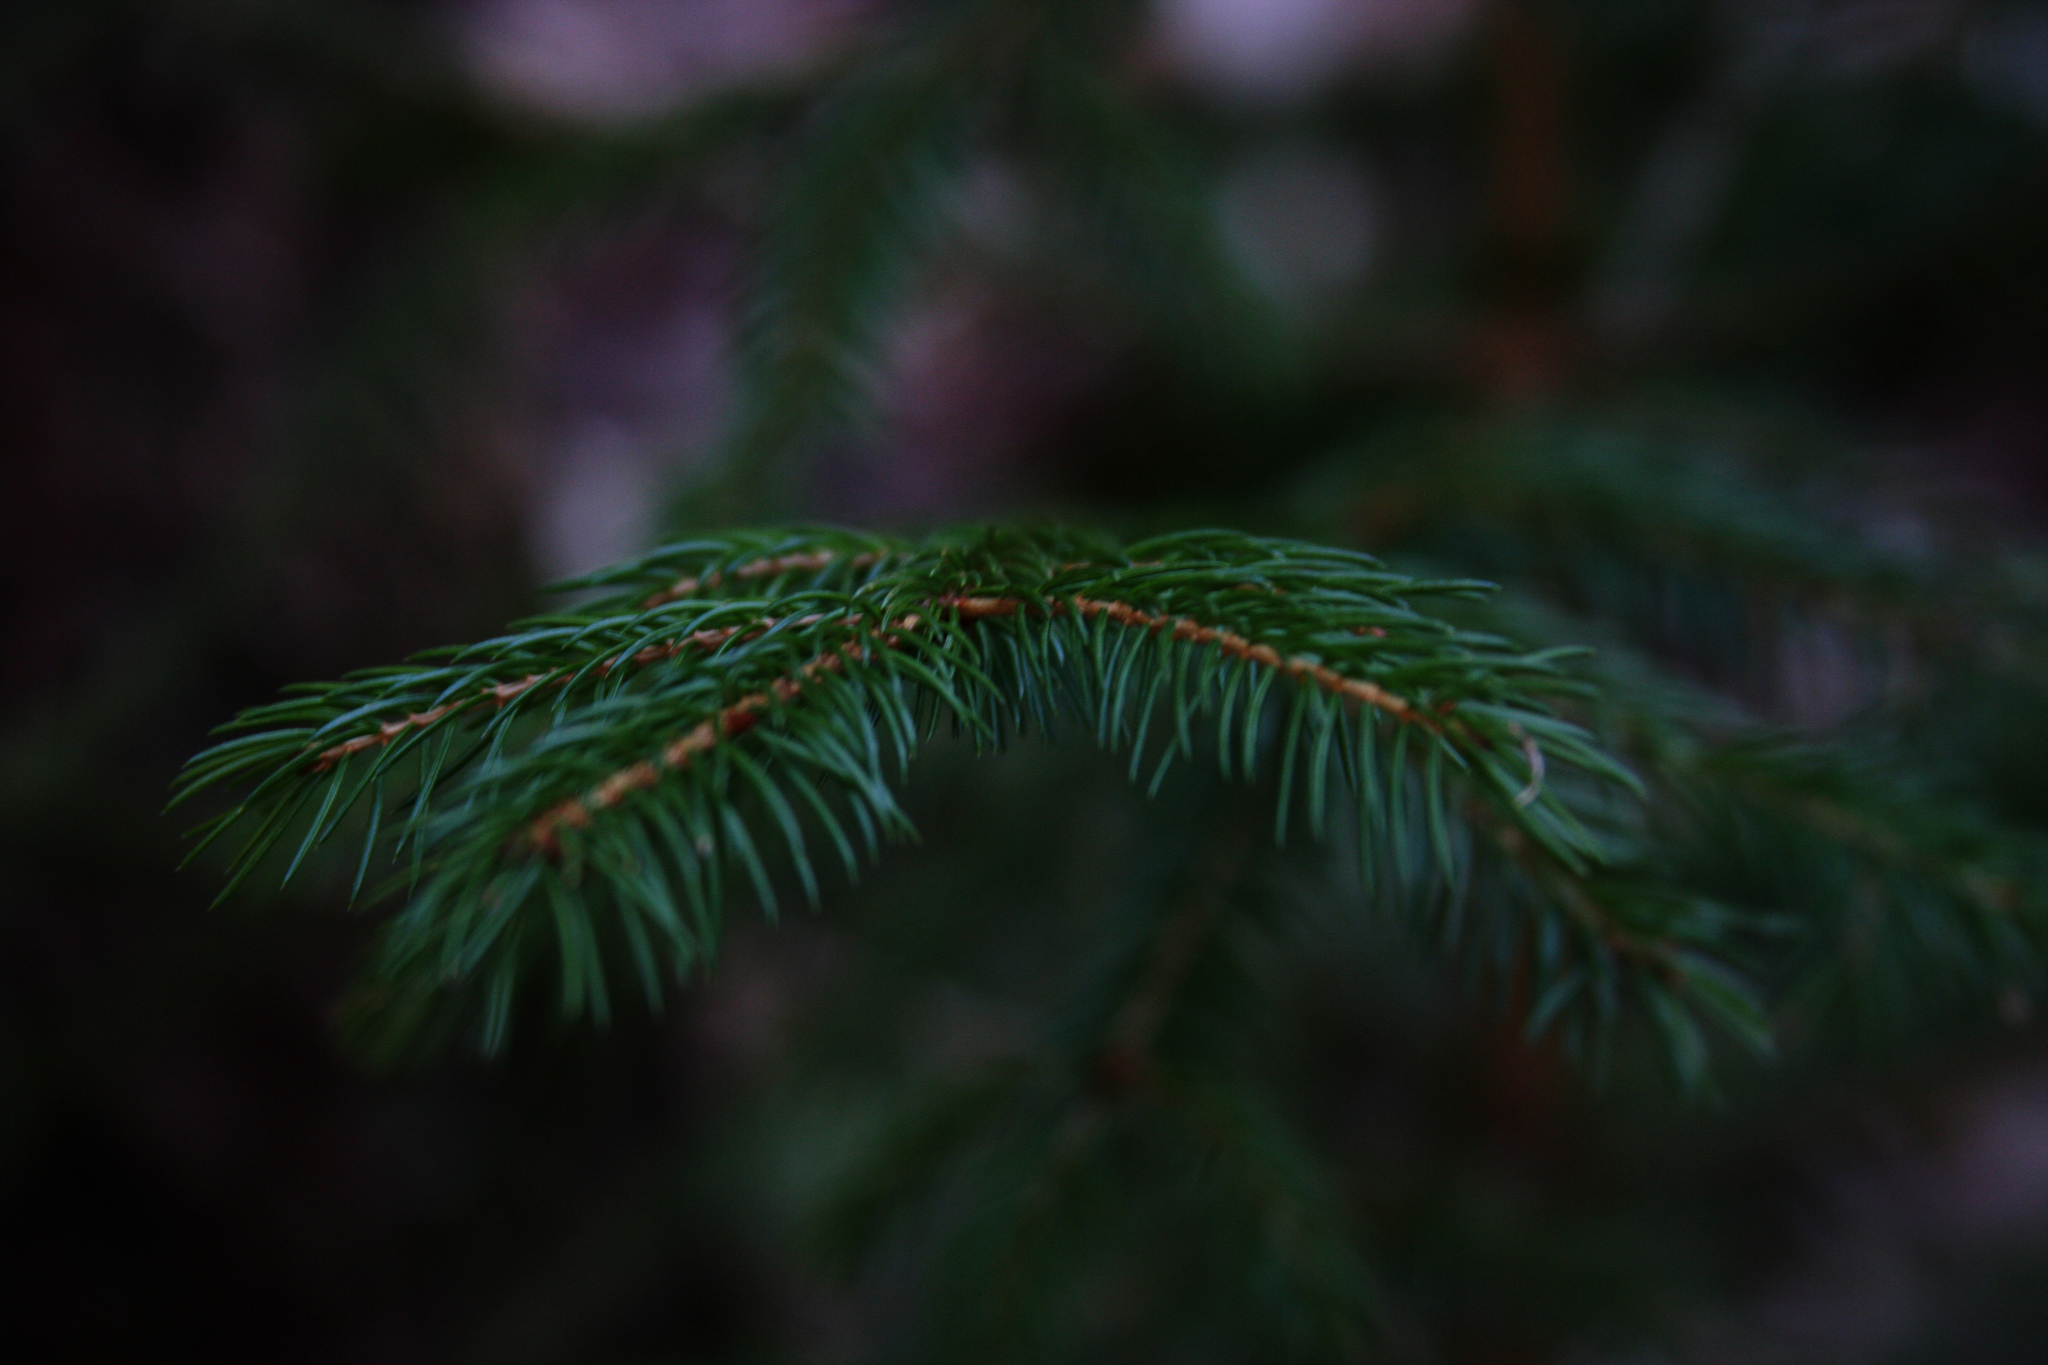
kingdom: Plantae
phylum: Tracheophyta
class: Pinopsida
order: Pinales
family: Pinaceae
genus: Picea
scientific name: Picea rubens
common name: Red spruce
